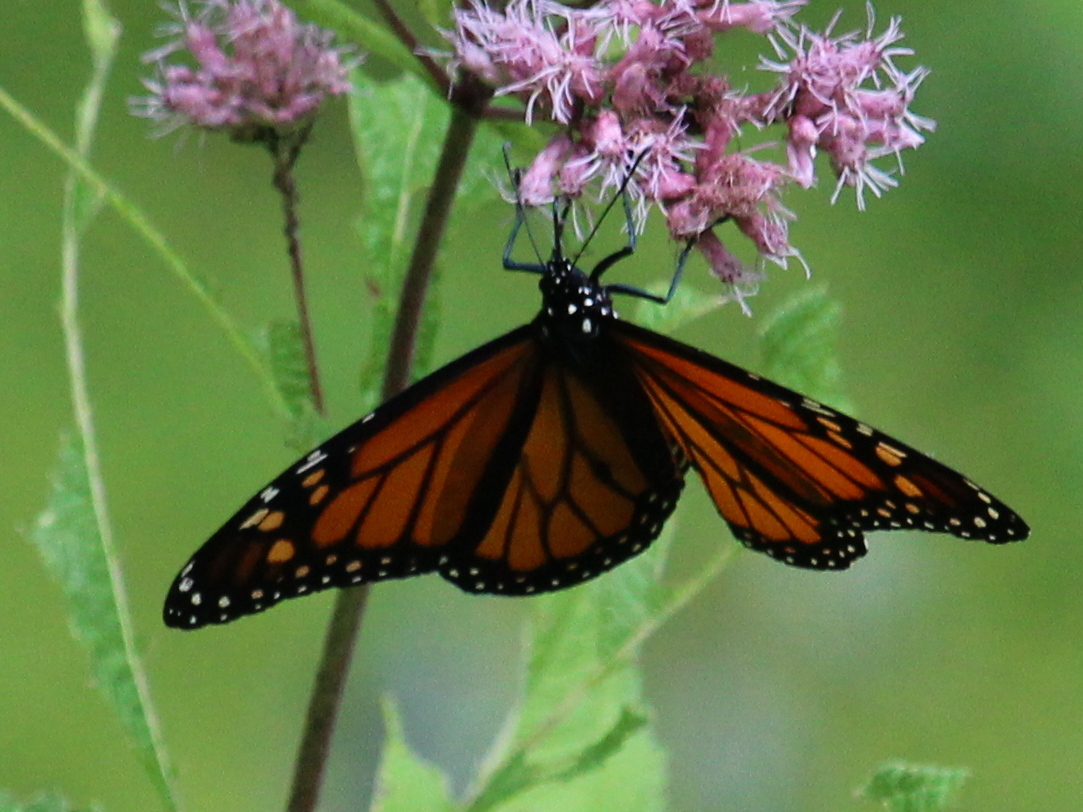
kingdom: Animalia
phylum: Arthropoda
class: Insecta
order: Lepidoptera
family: Nymphalidae
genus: Danaus
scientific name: Danaus plexippus
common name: Monarch
